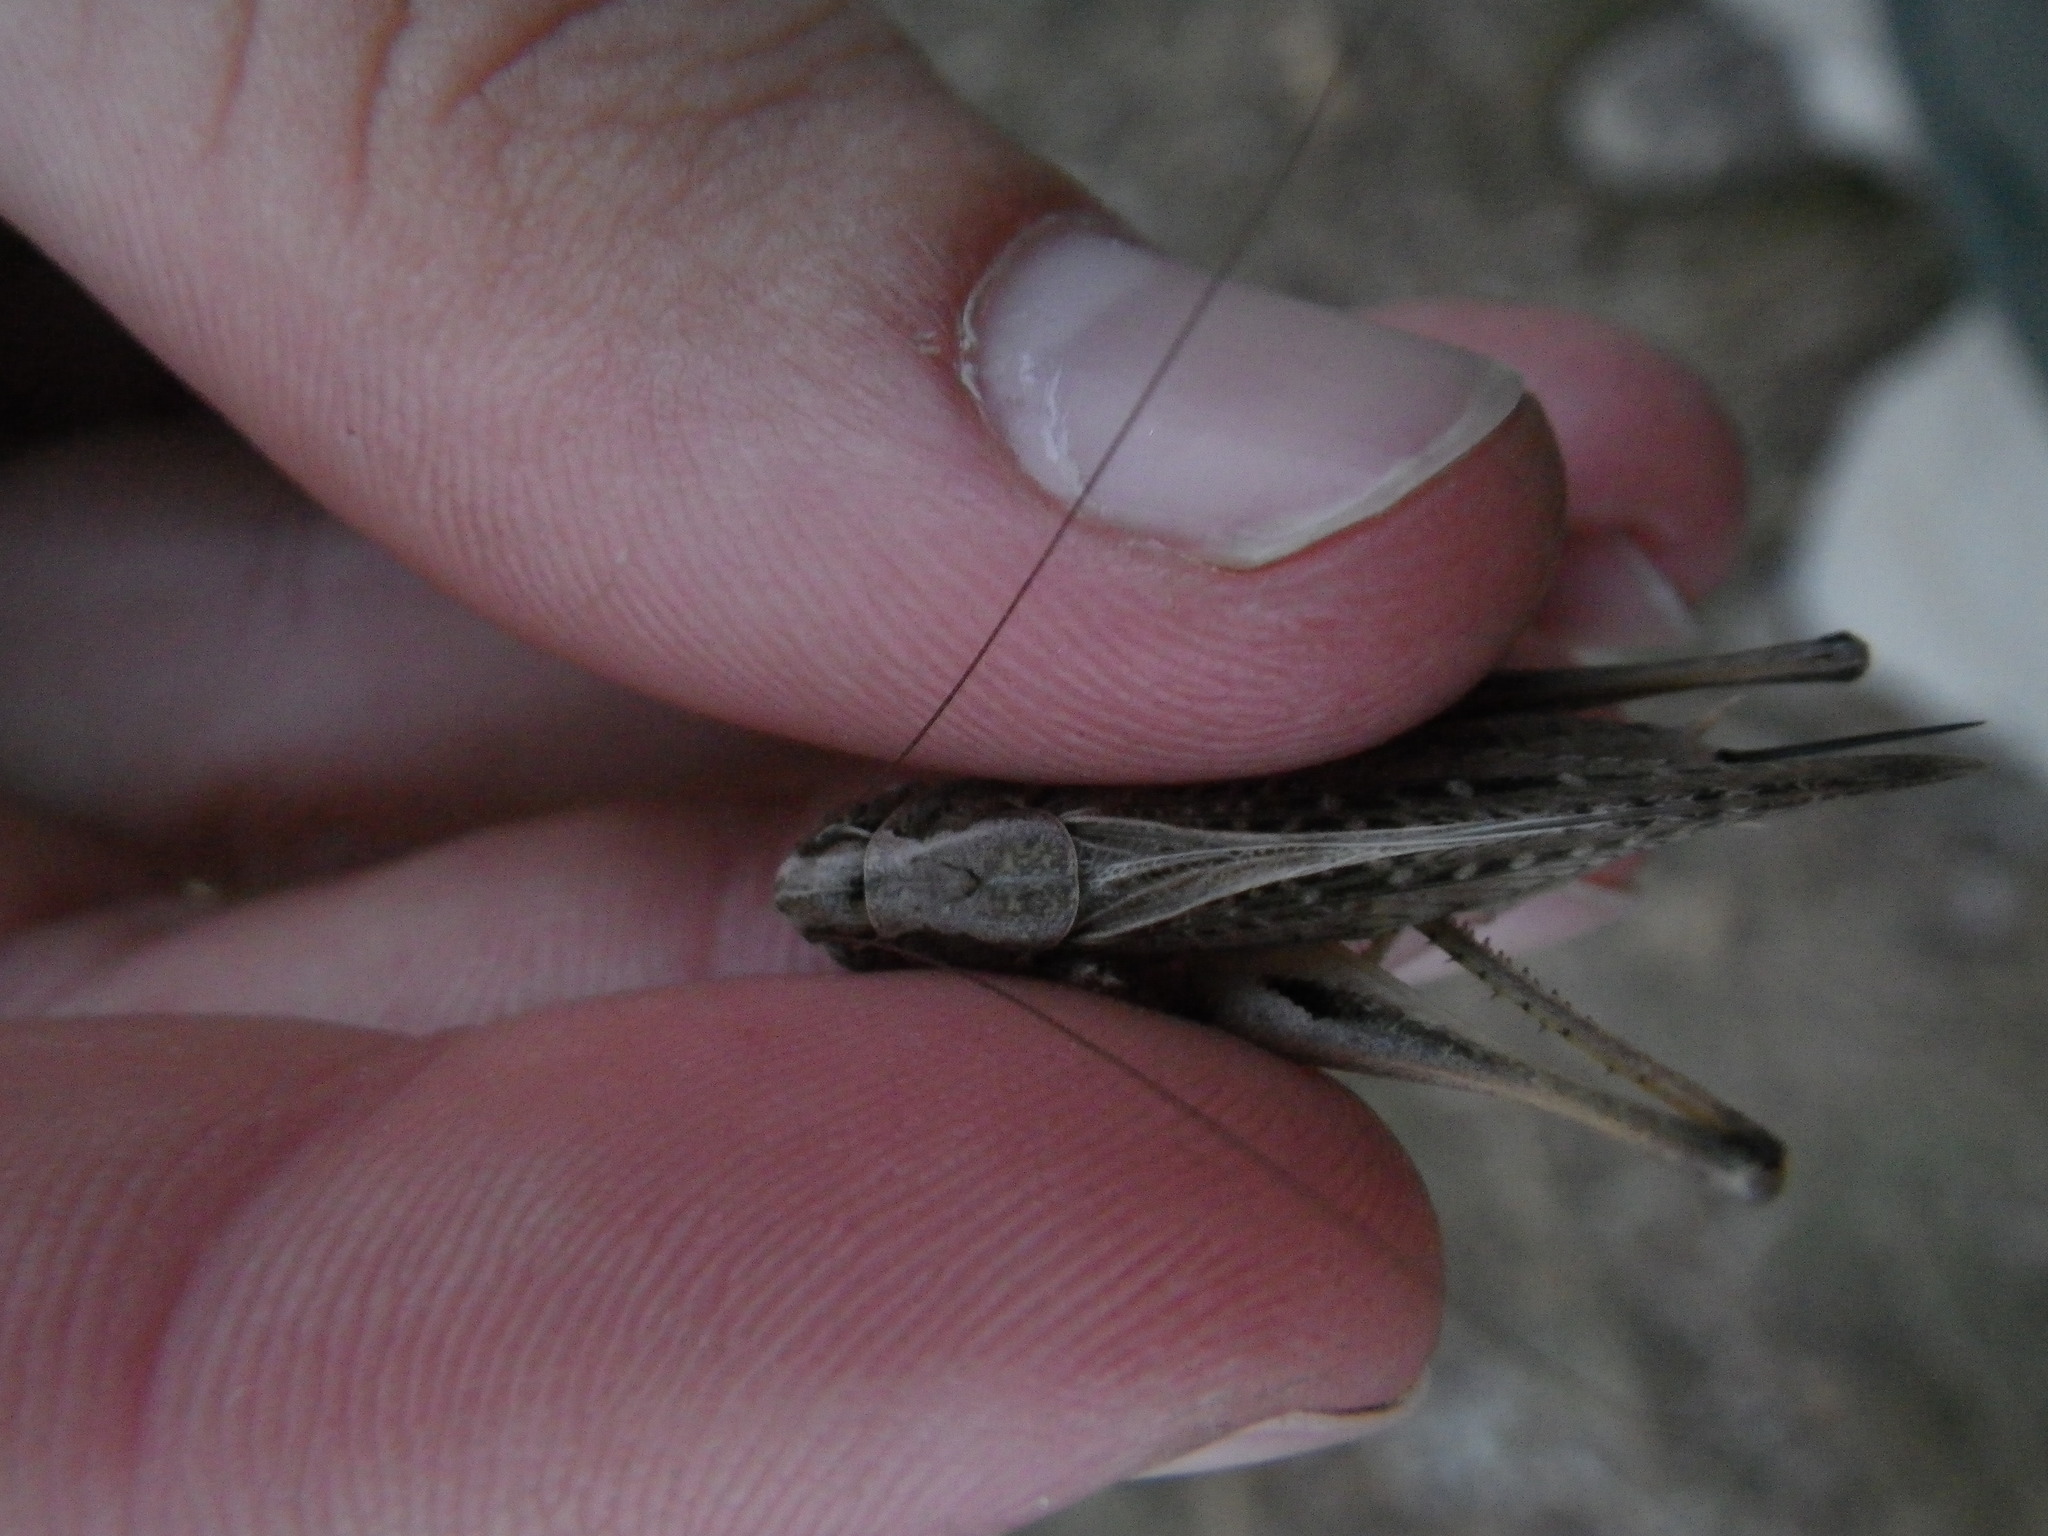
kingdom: Animalia
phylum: Arthropoda
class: Insecta
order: Orthoptera
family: Tettigoniidae
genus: Platycleis
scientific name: Platycleis albopunctata
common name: Grey bush-cricket
